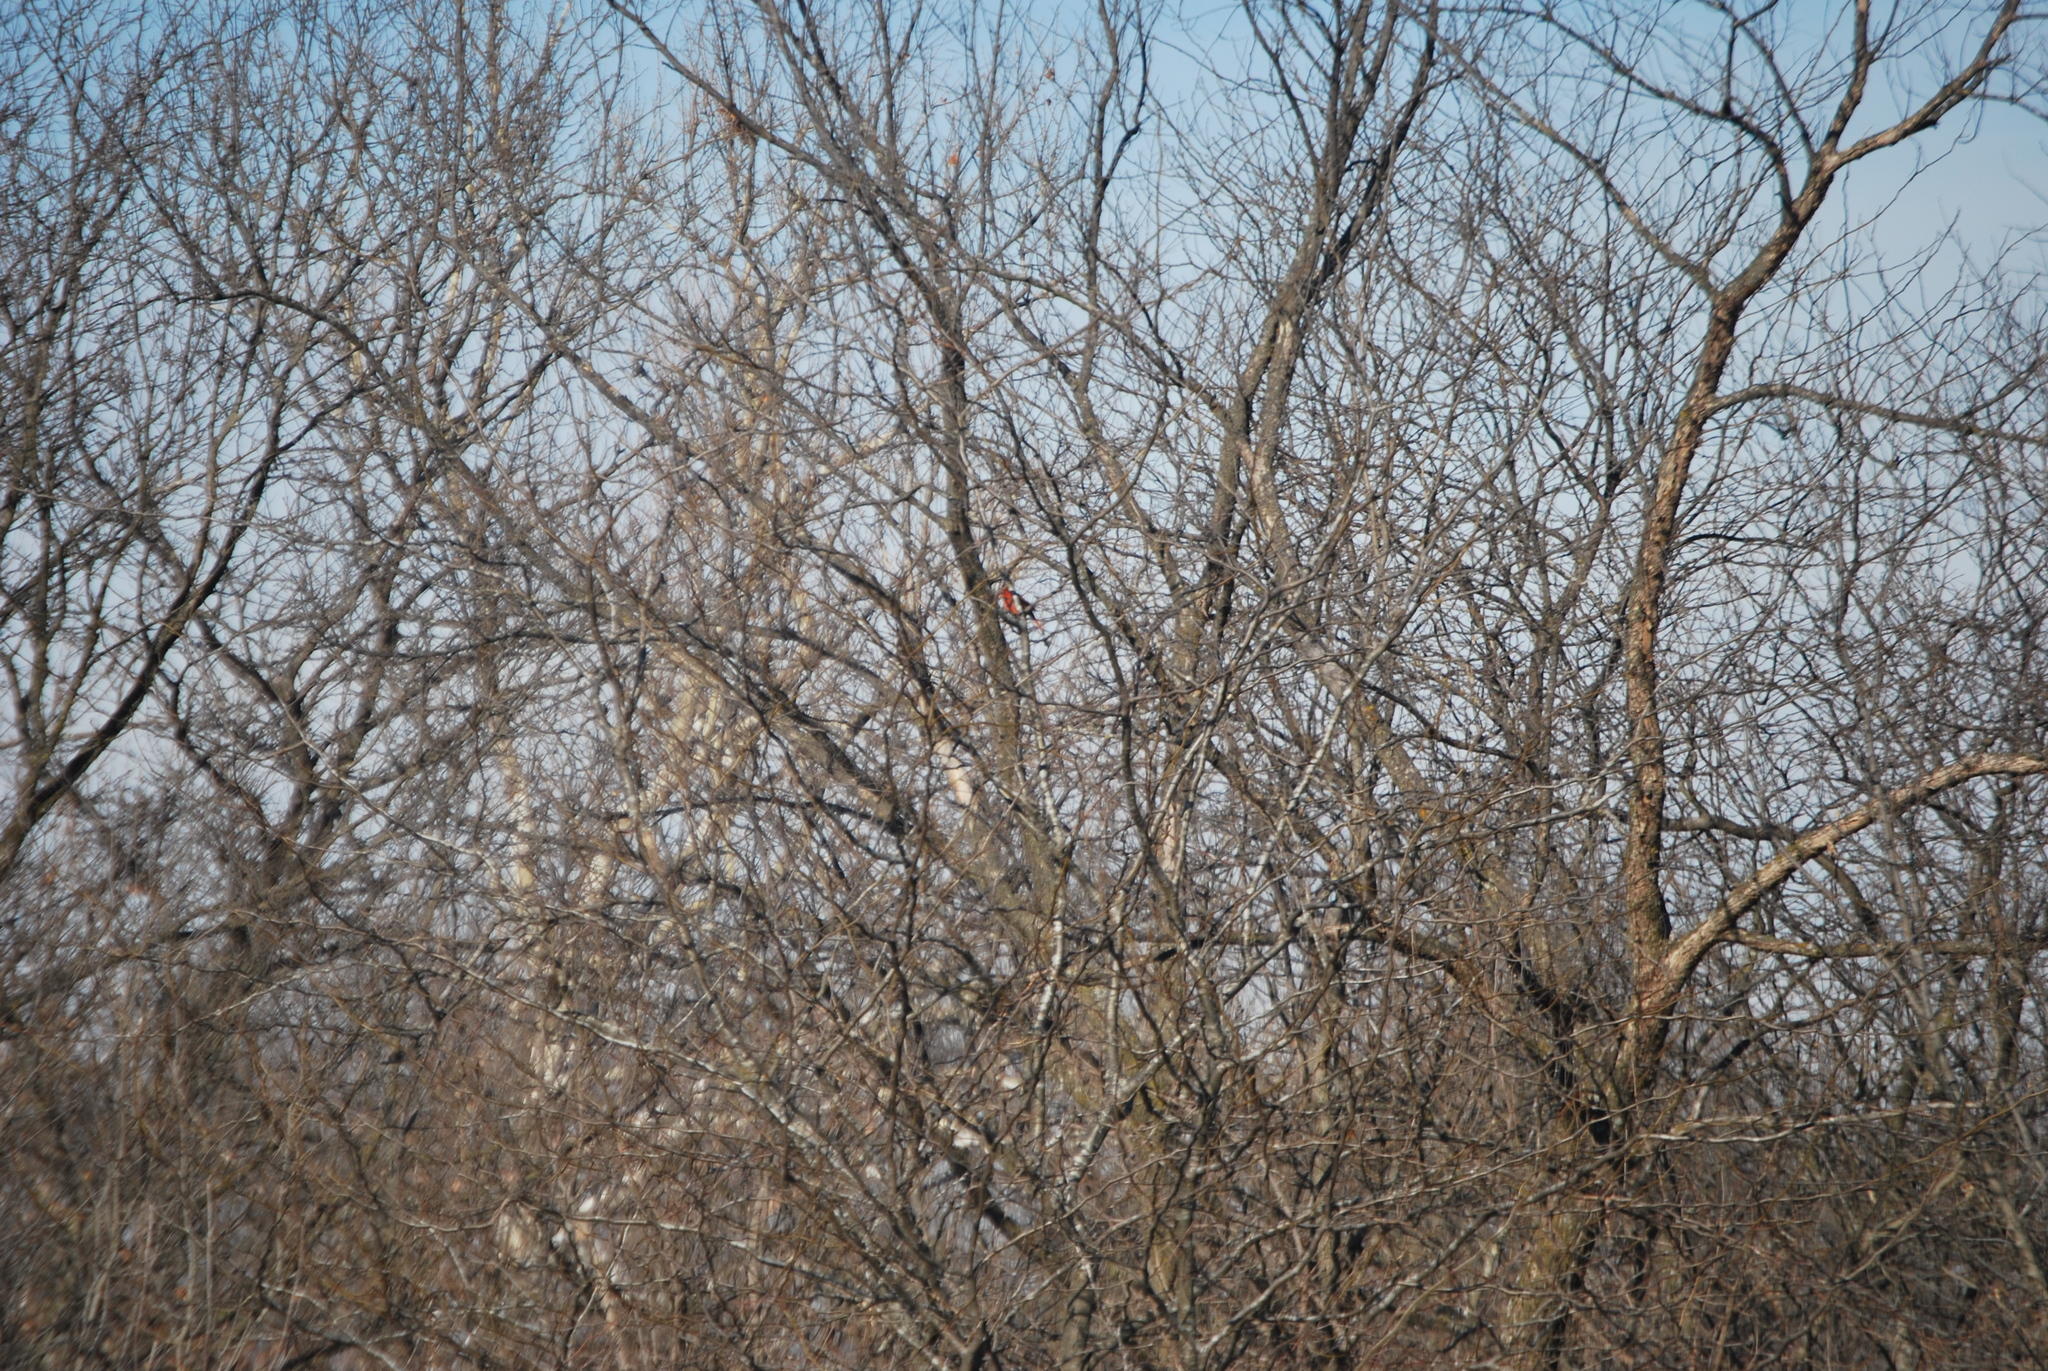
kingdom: Animalia
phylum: Chordata
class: Aves
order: Passeriformes
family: Cardinalidae
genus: Cardinalis
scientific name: Cardinalis cardinalis
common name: Northern cardinal
